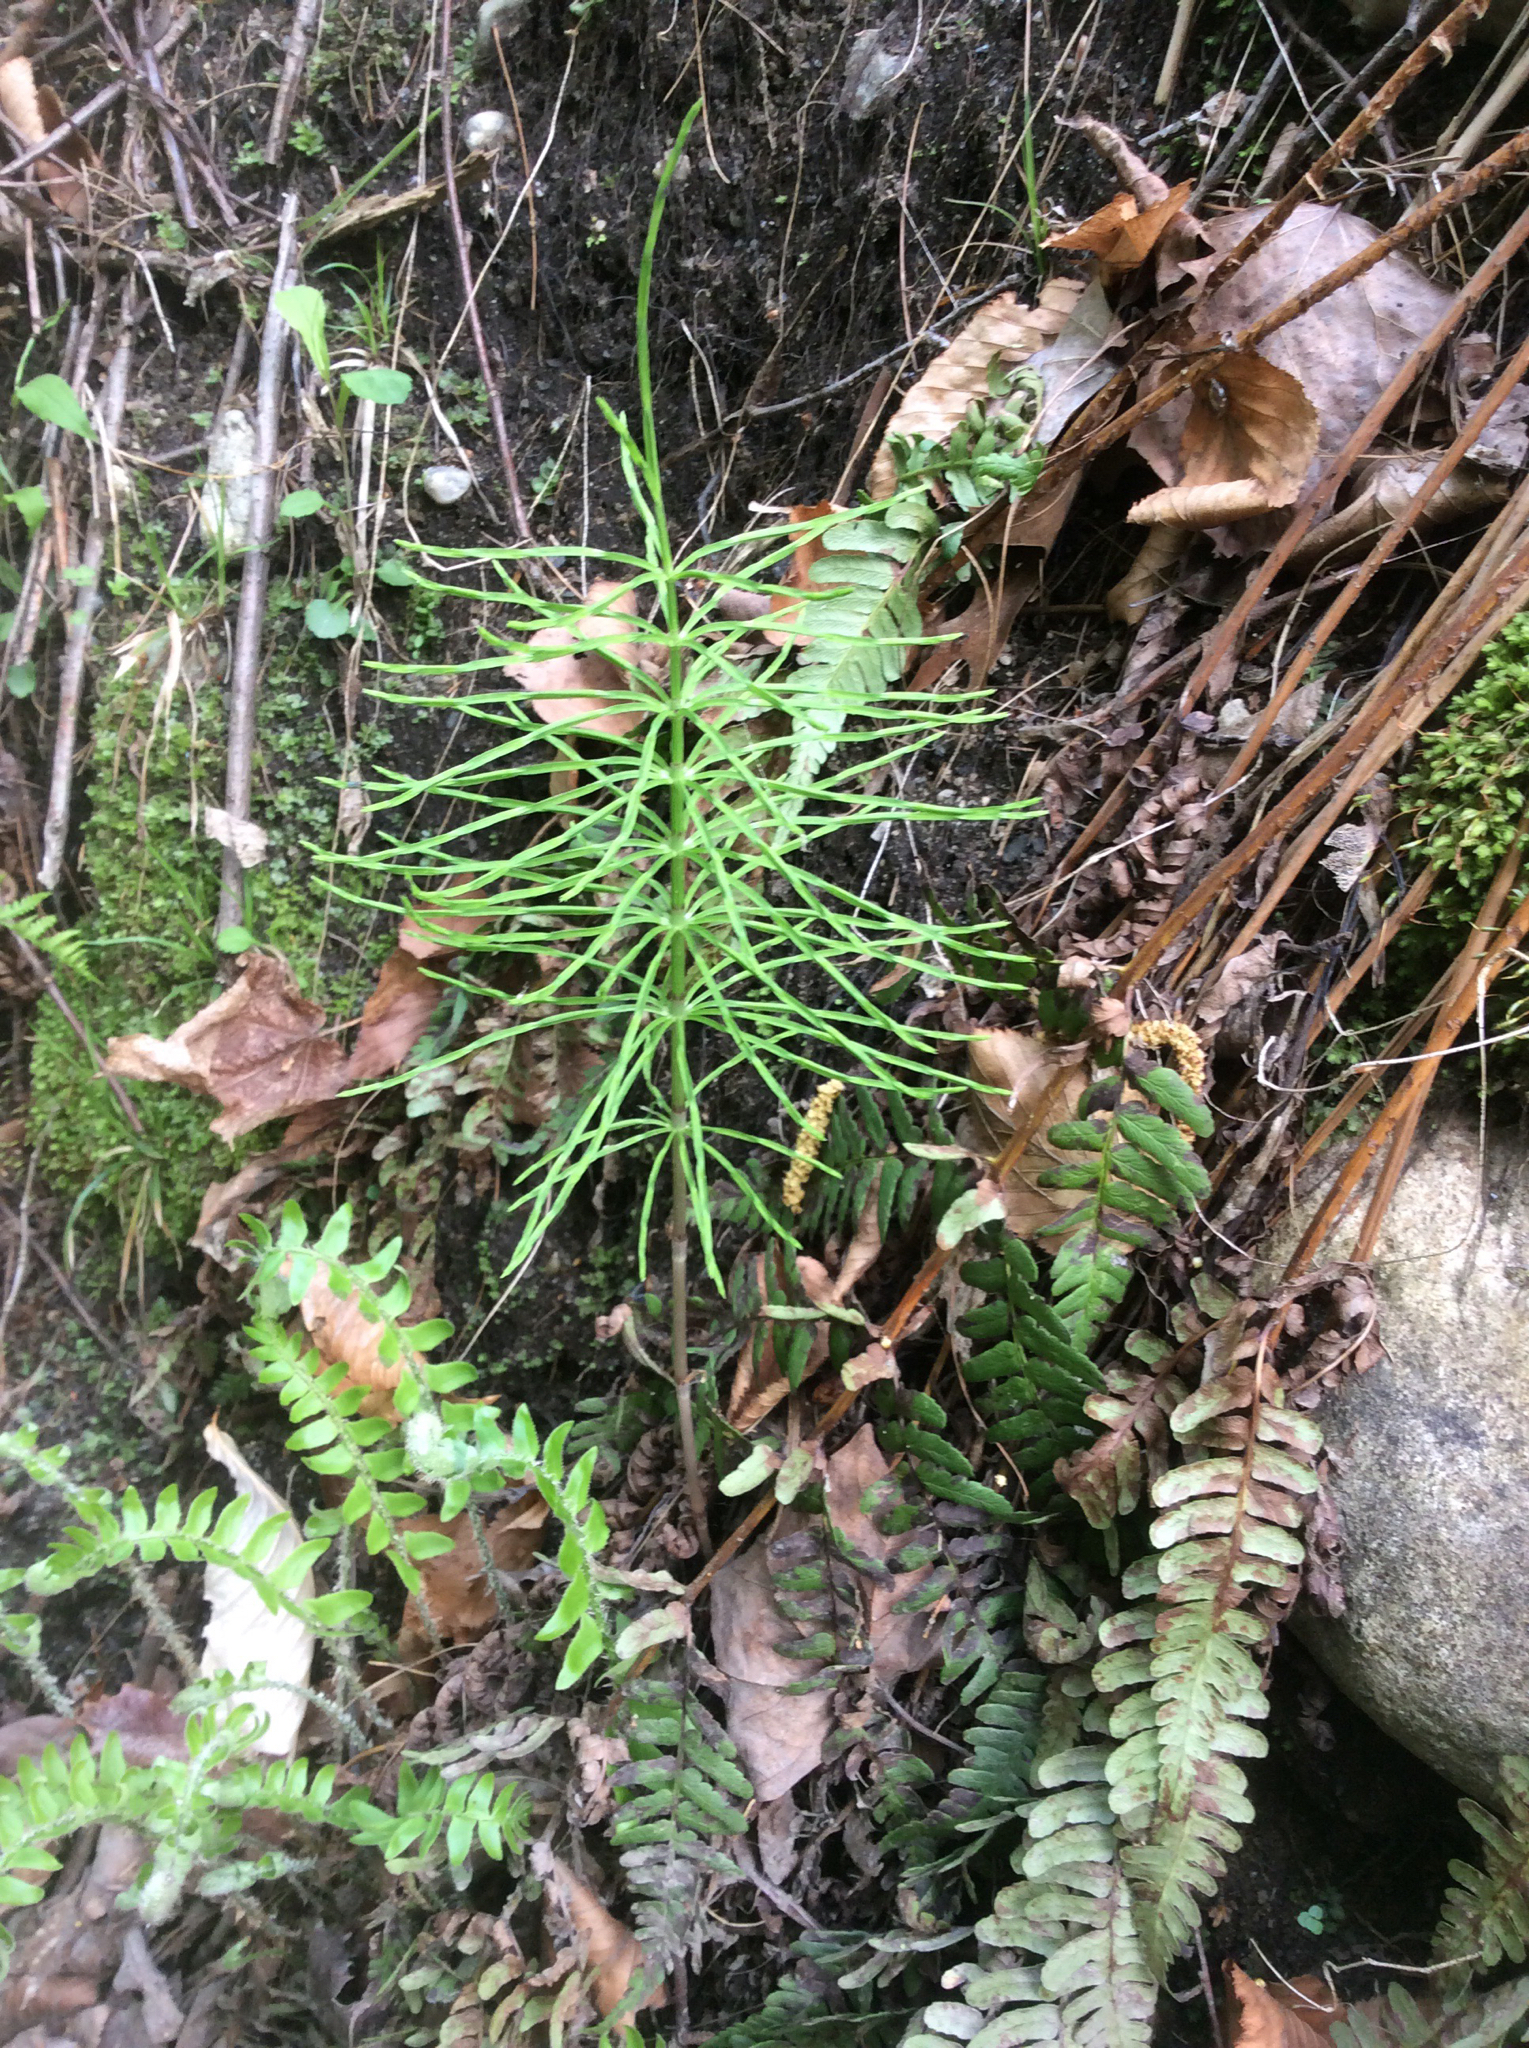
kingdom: Plantae
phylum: Tracheophyta
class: Polypodiopsida
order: Equisetales
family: Equisetaceae
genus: Equisetum
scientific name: Equisetum arvense
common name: Field horsetail
